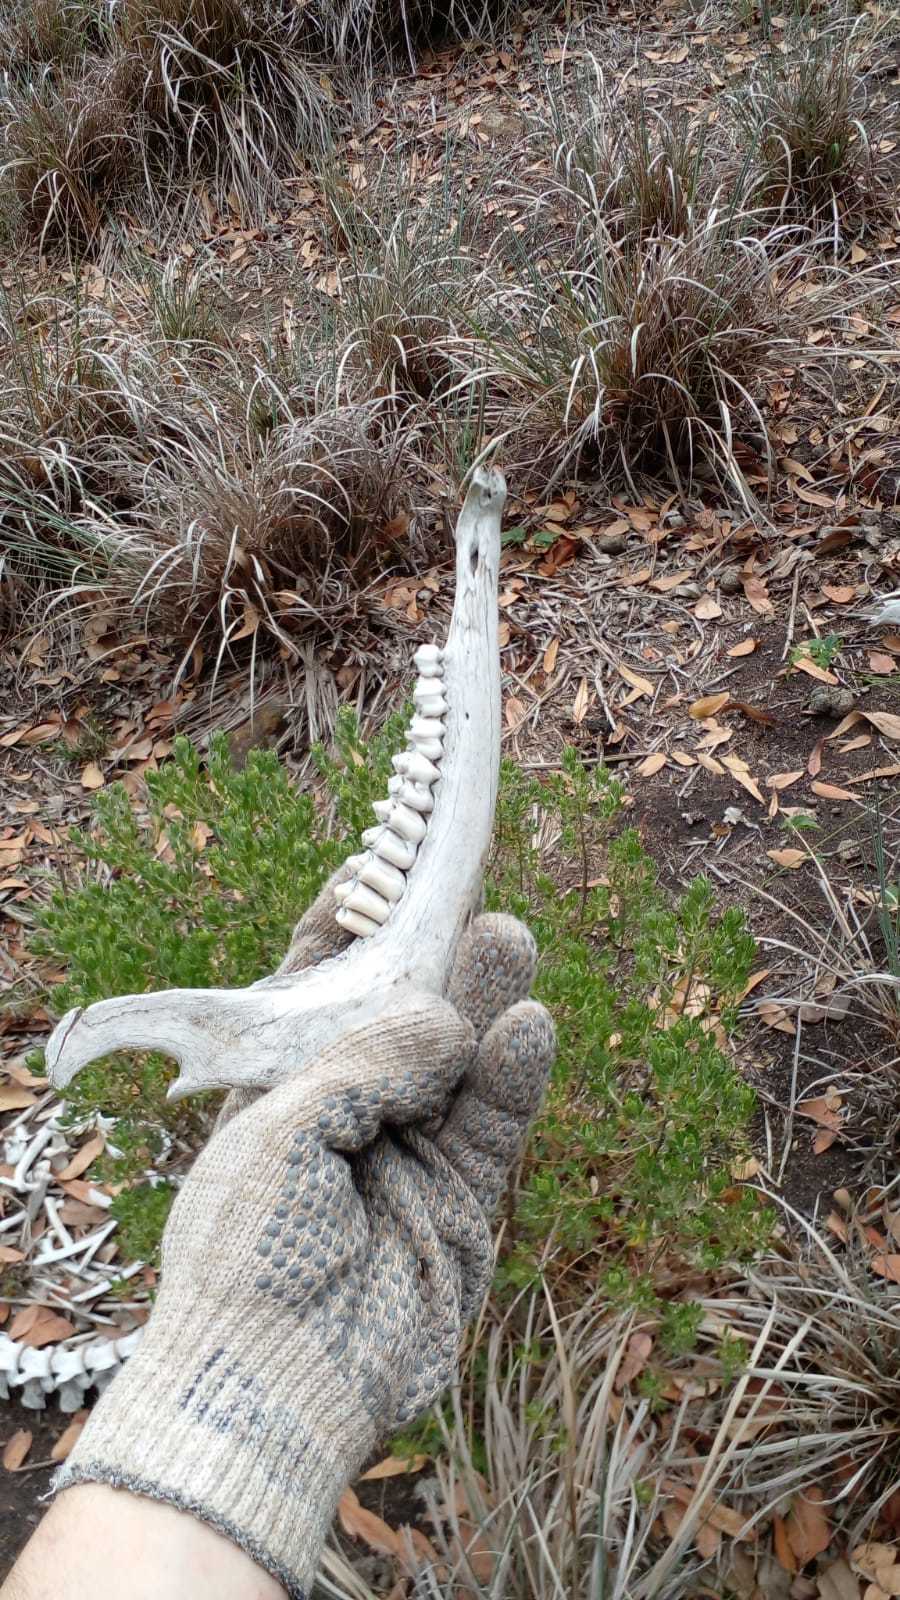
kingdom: Animalia
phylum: Chordata
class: Mammalia
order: Artiodactyla
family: Cervidae
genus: Dama
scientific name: Dama dama
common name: Fallow deer
